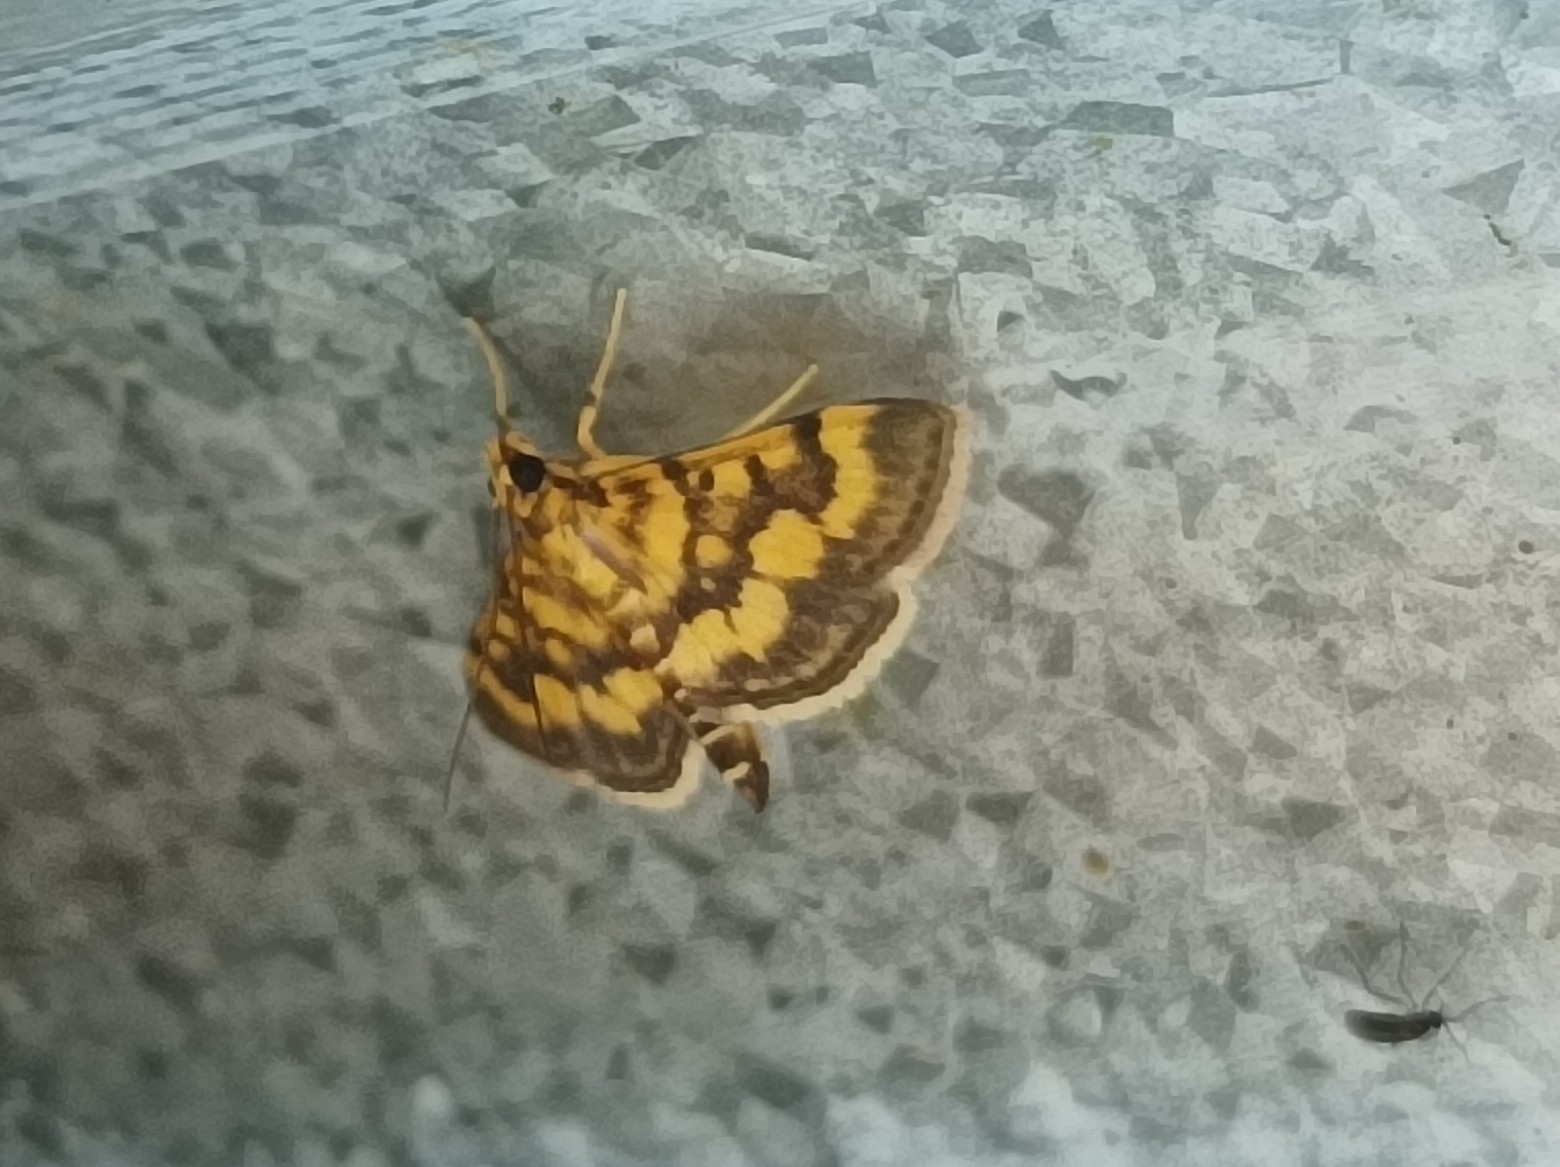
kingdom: Animalia
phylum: Arthropoda
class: Insecta
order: Lepidoptera
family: Crambidae
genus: Omiodes
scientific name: Omiodes diemenalis
